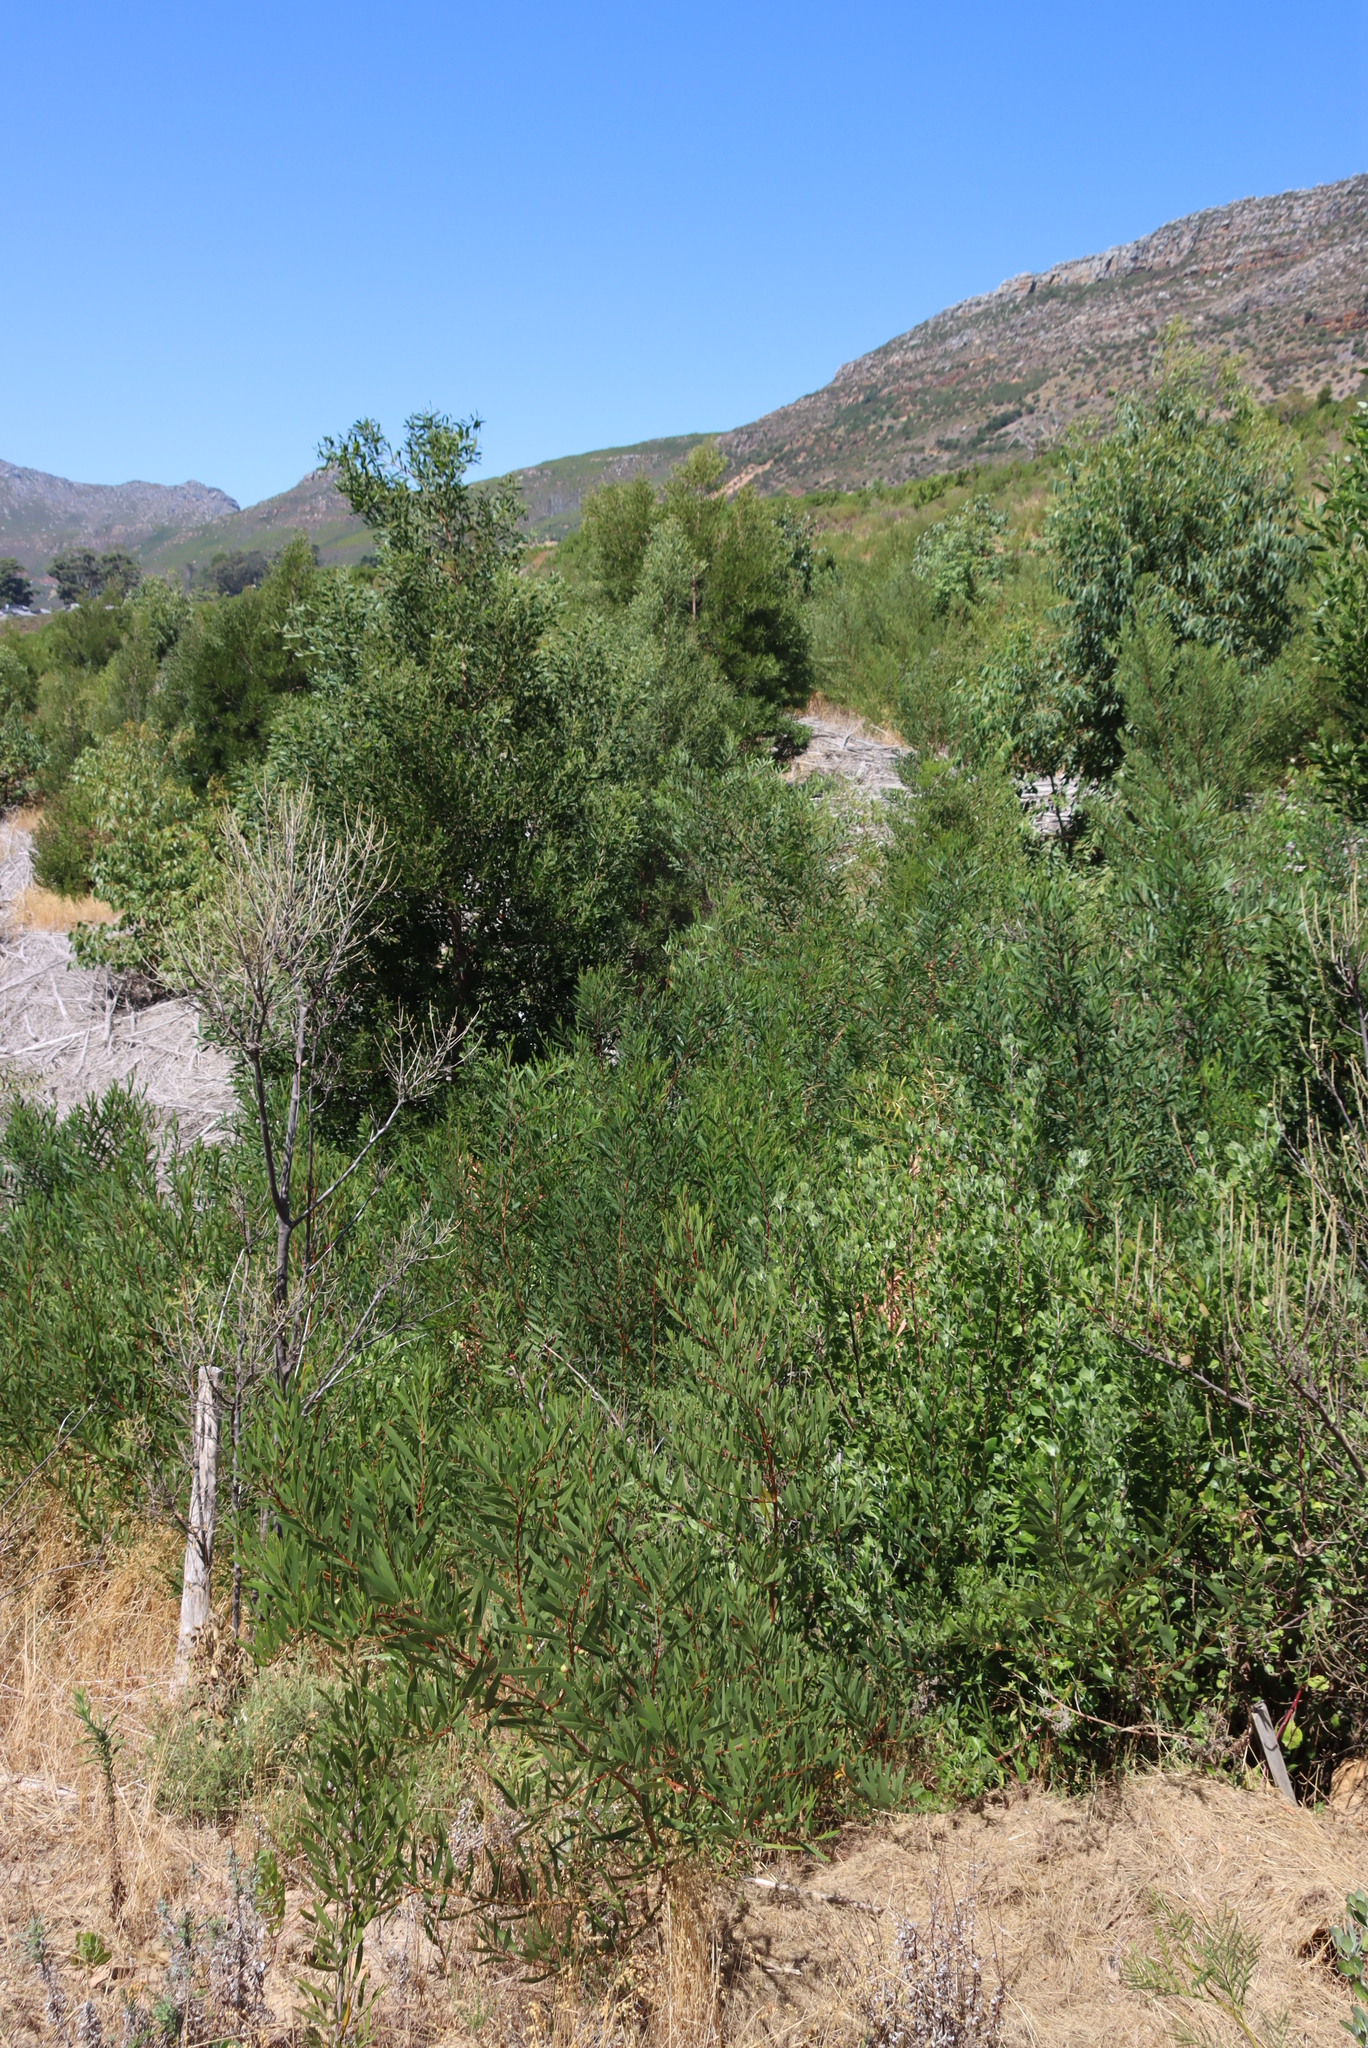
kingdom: Plantae
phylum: Tracheophyta
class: Magnoliopsida
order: Fabales
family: Fabaceae
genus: Acacia
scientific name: Acacia longifolia
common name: Sydney golden wattle
